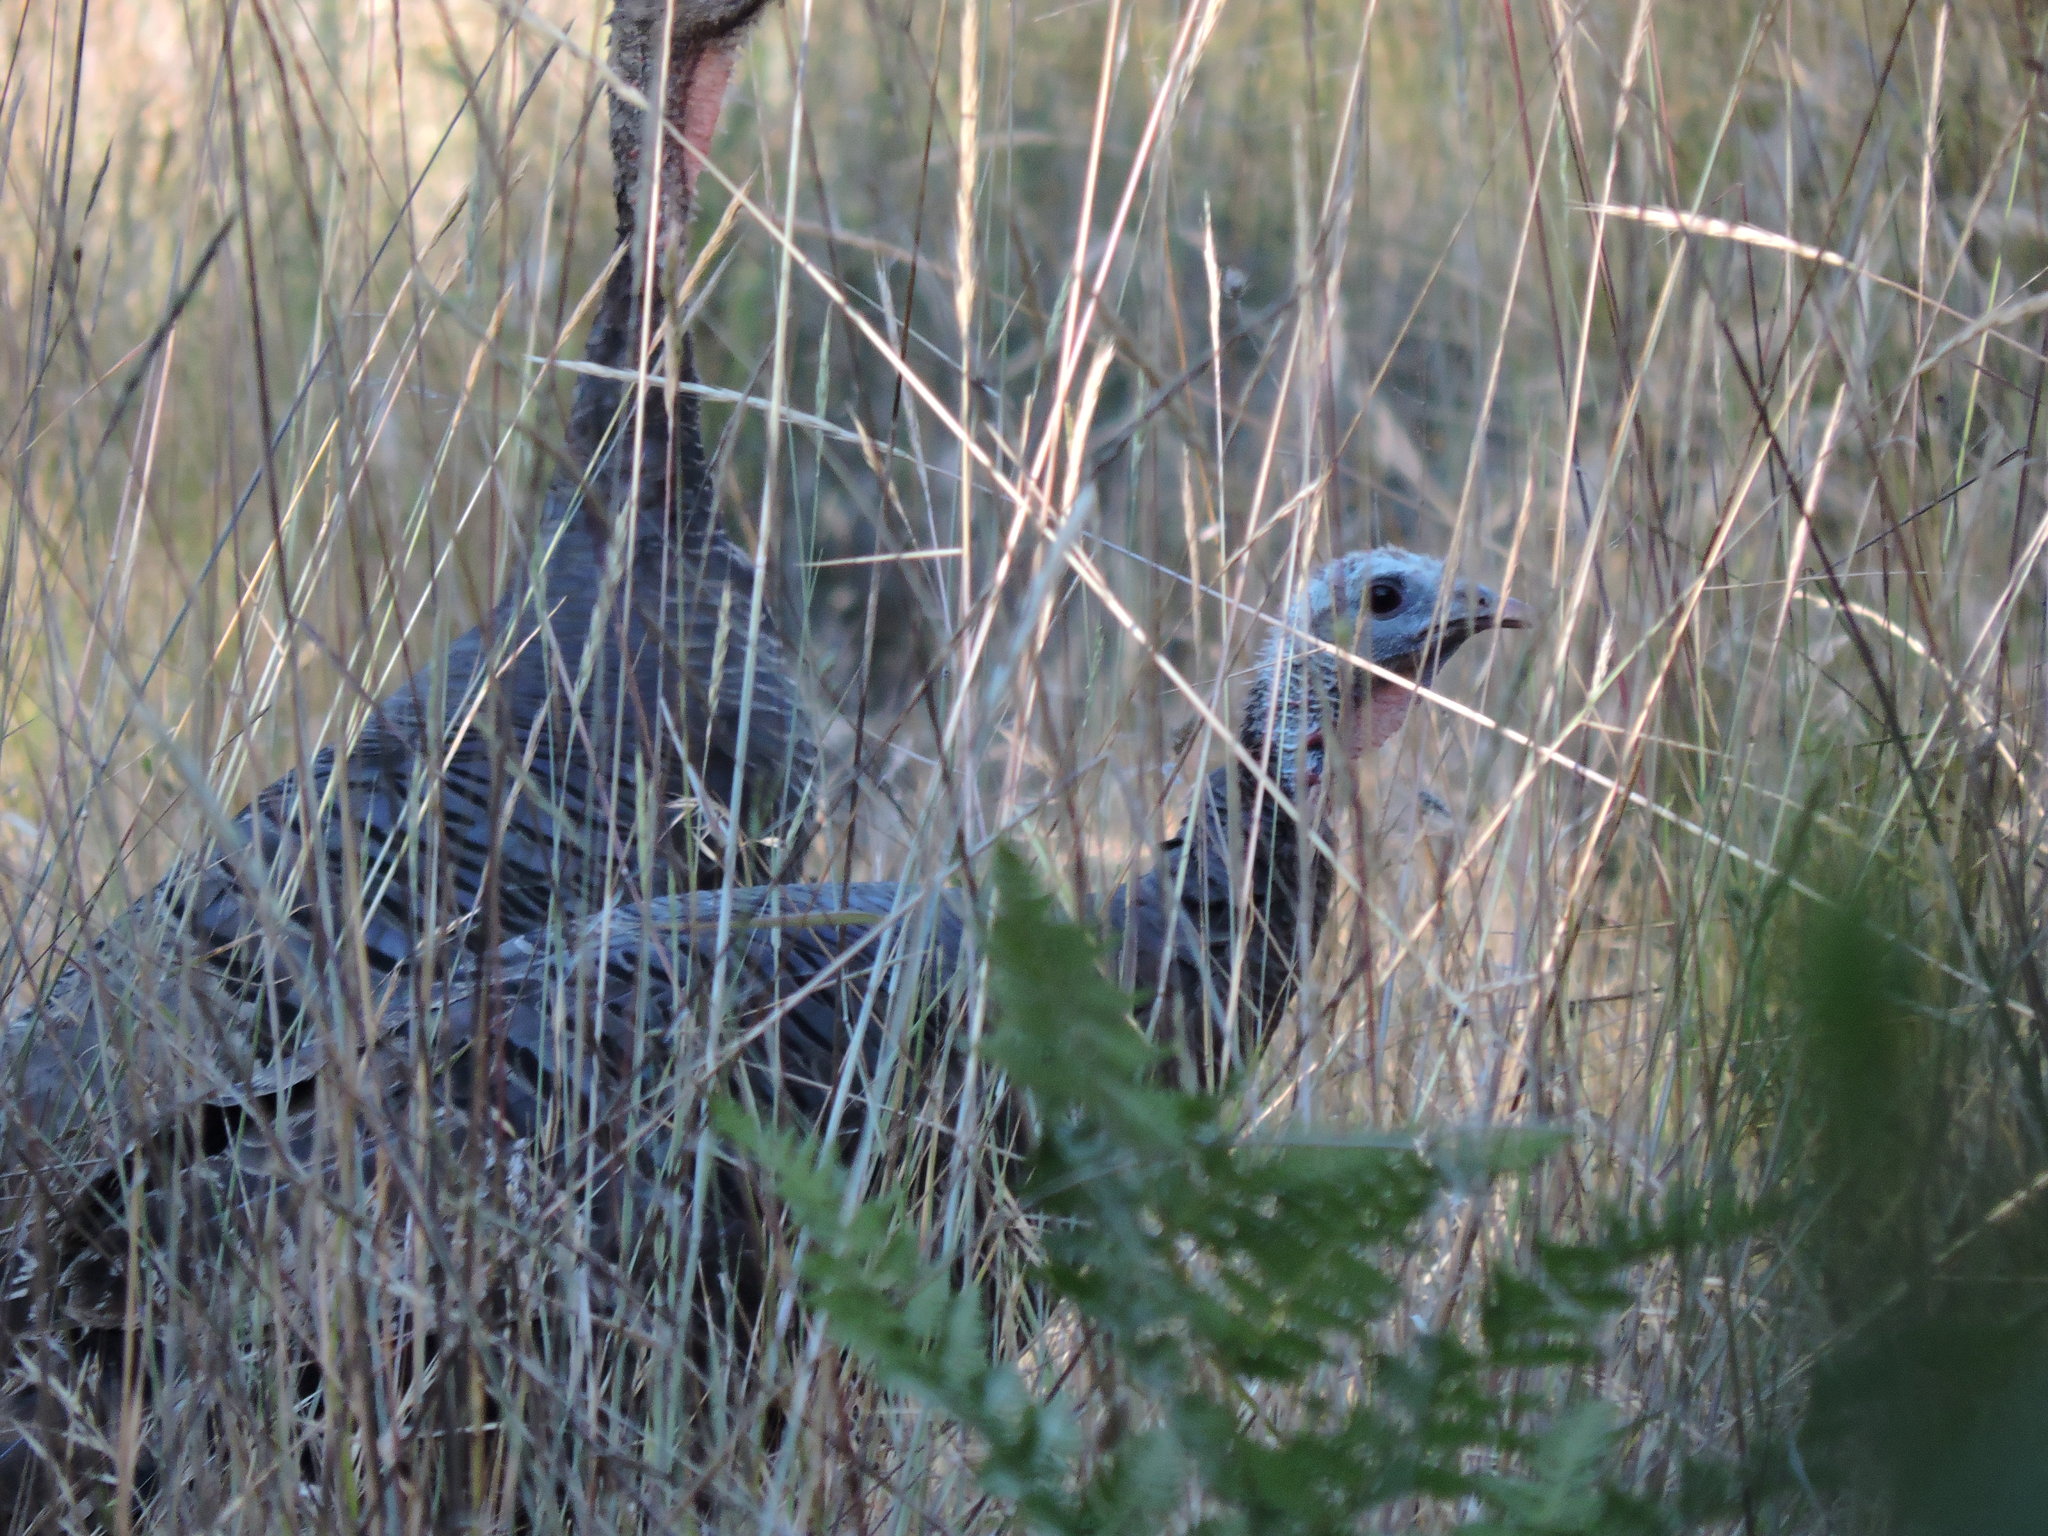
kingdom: Animalia
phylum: Chordata
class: Aves
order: Galliformes
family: Phasianidae
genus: Meleagris
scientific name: Meleagris gallopavo
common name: Wild turkey
